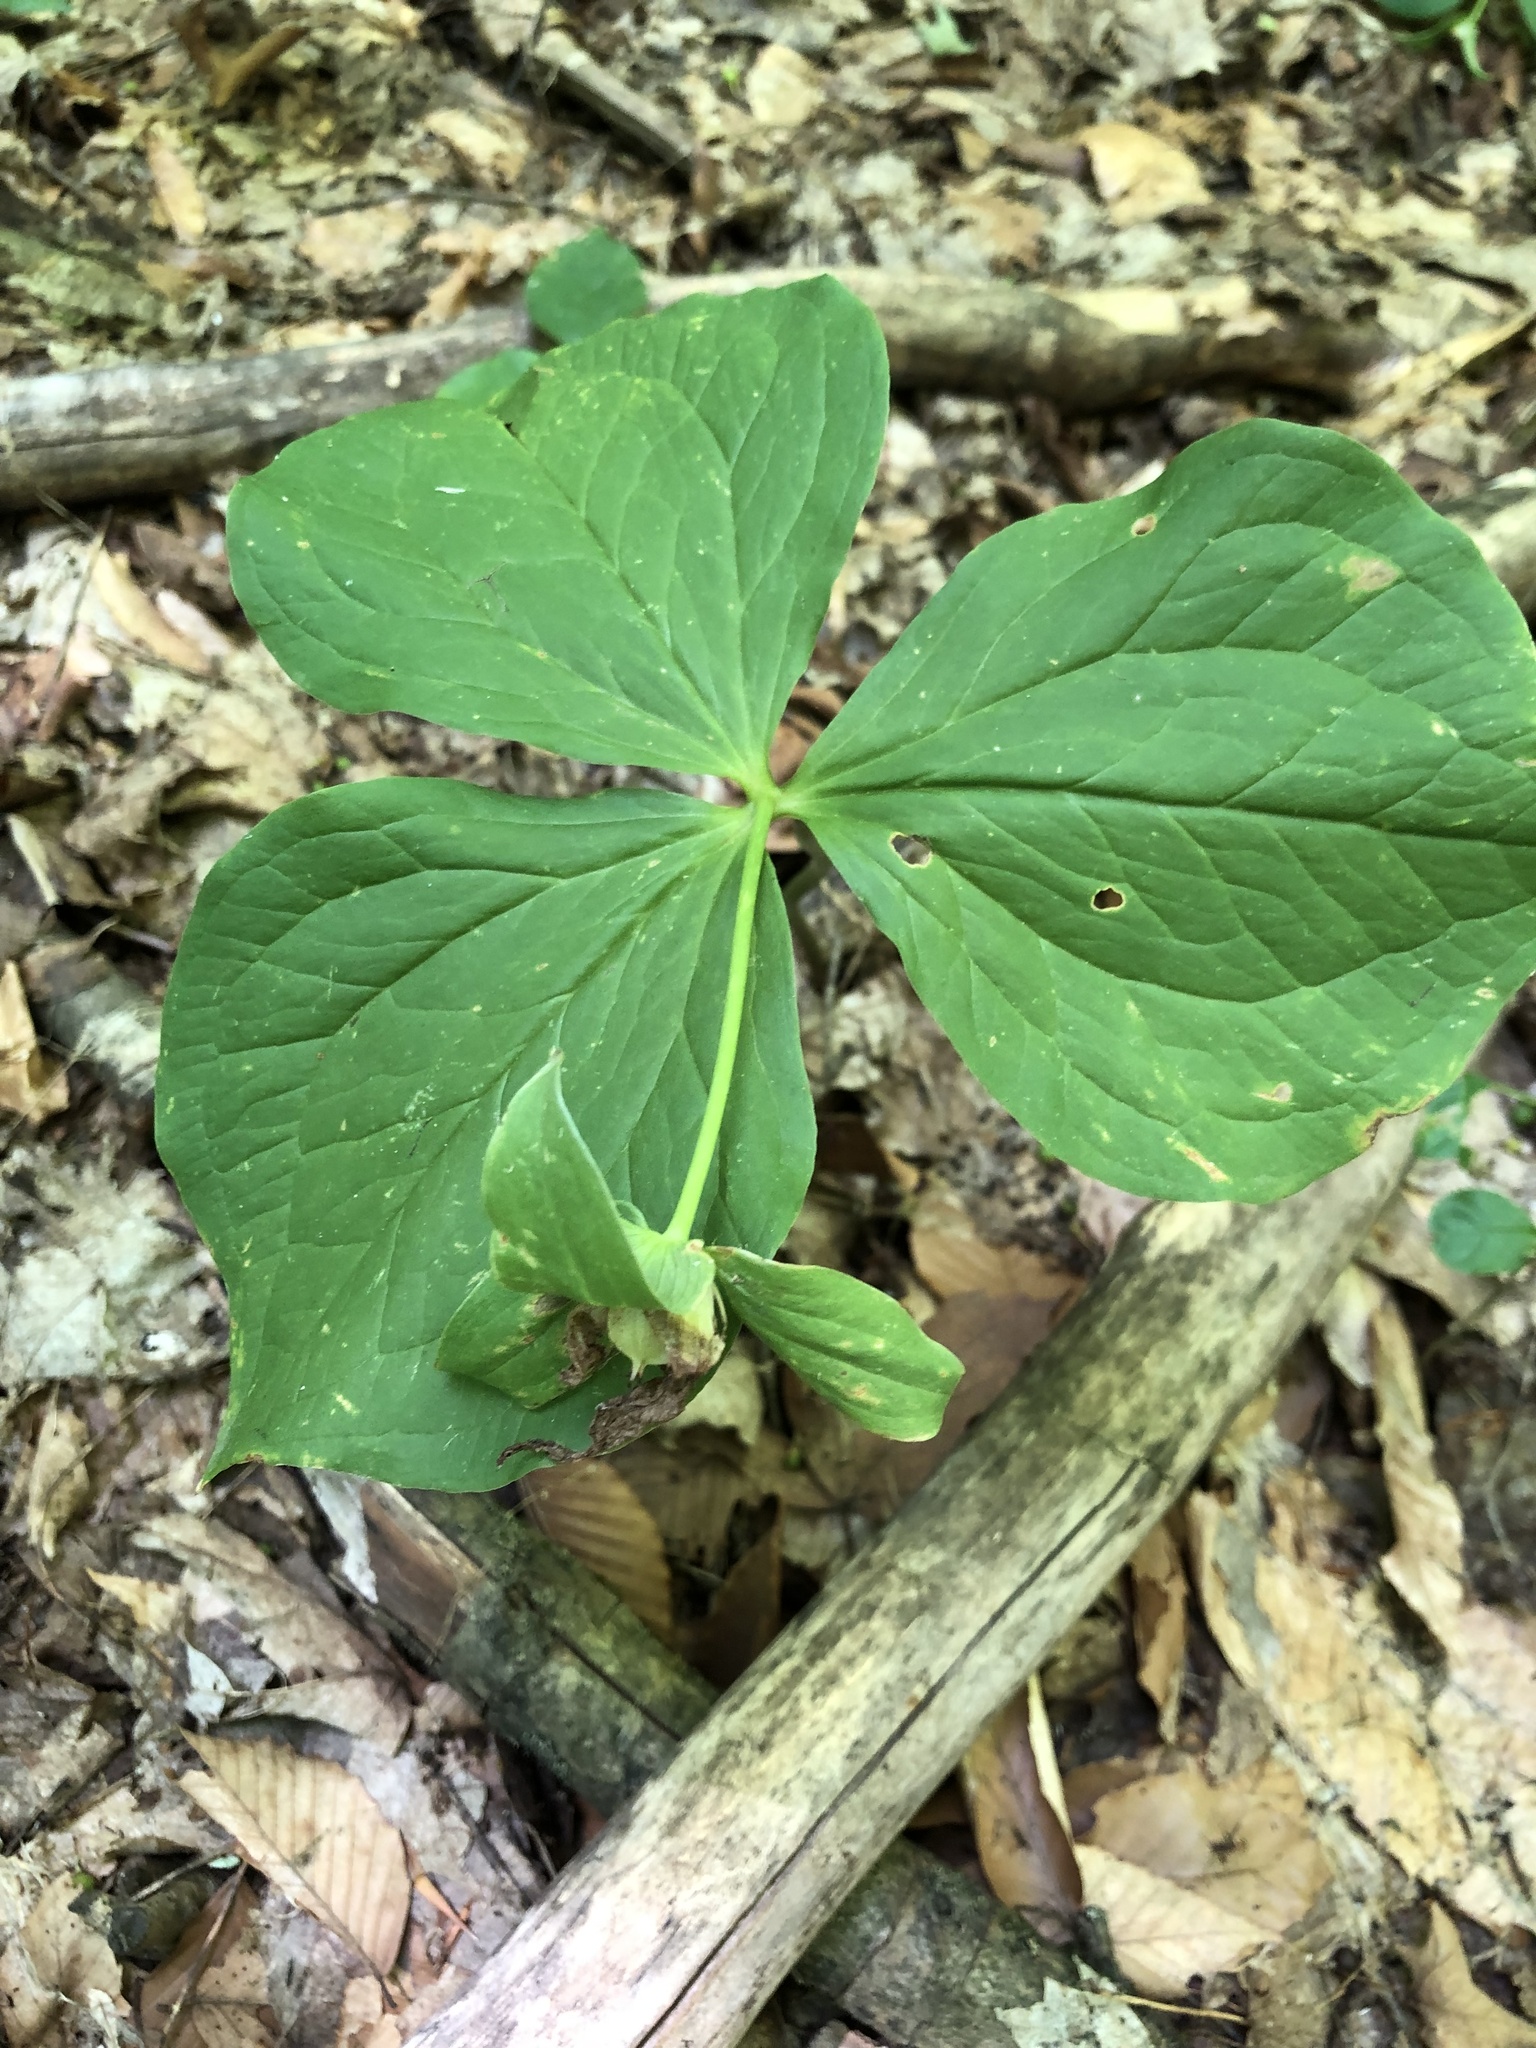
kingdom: Plantae
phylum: Tracheophyta
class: Liliopsida
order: Liliales
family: Melanthiaceae
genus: Trillium
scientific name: Trillium grandiflorum
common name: Great white trillium
